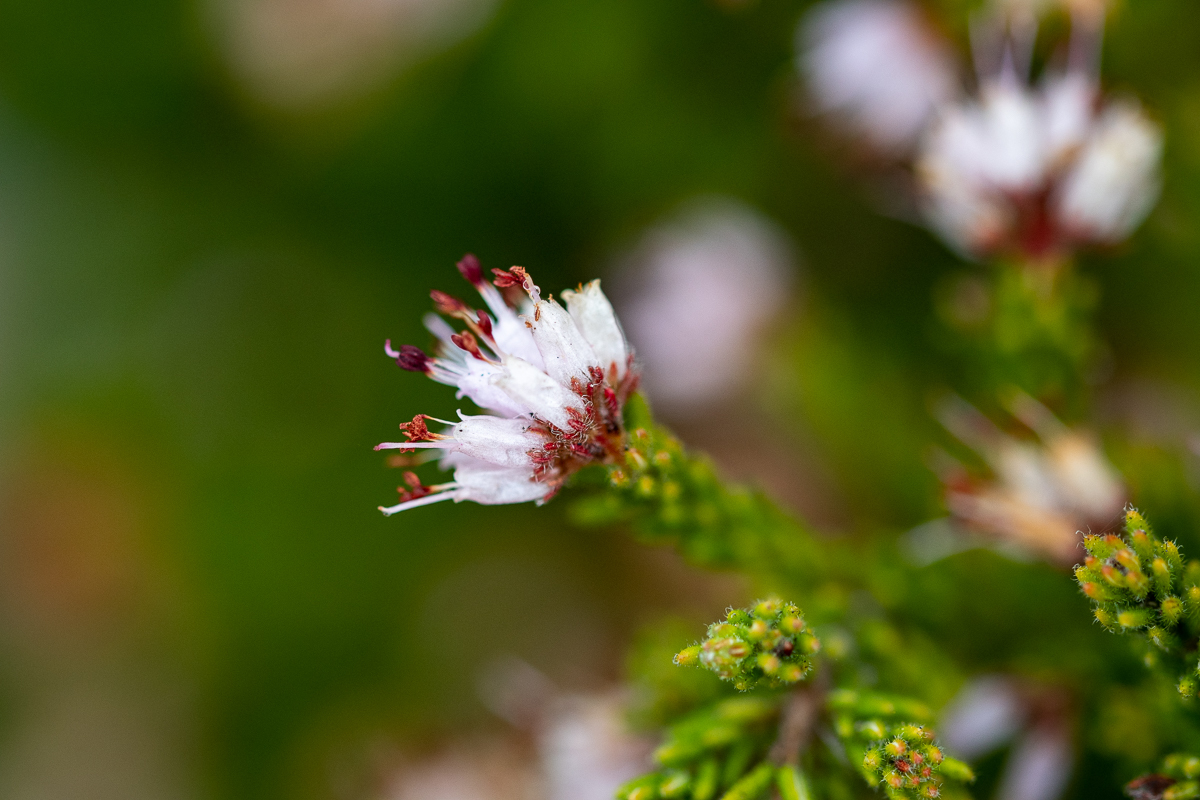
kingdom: Plantae
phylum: Tracheophyta
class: Magnoliopsida
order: Ericales
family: Ericaceae
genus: Erica
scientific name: Erica ericoides
